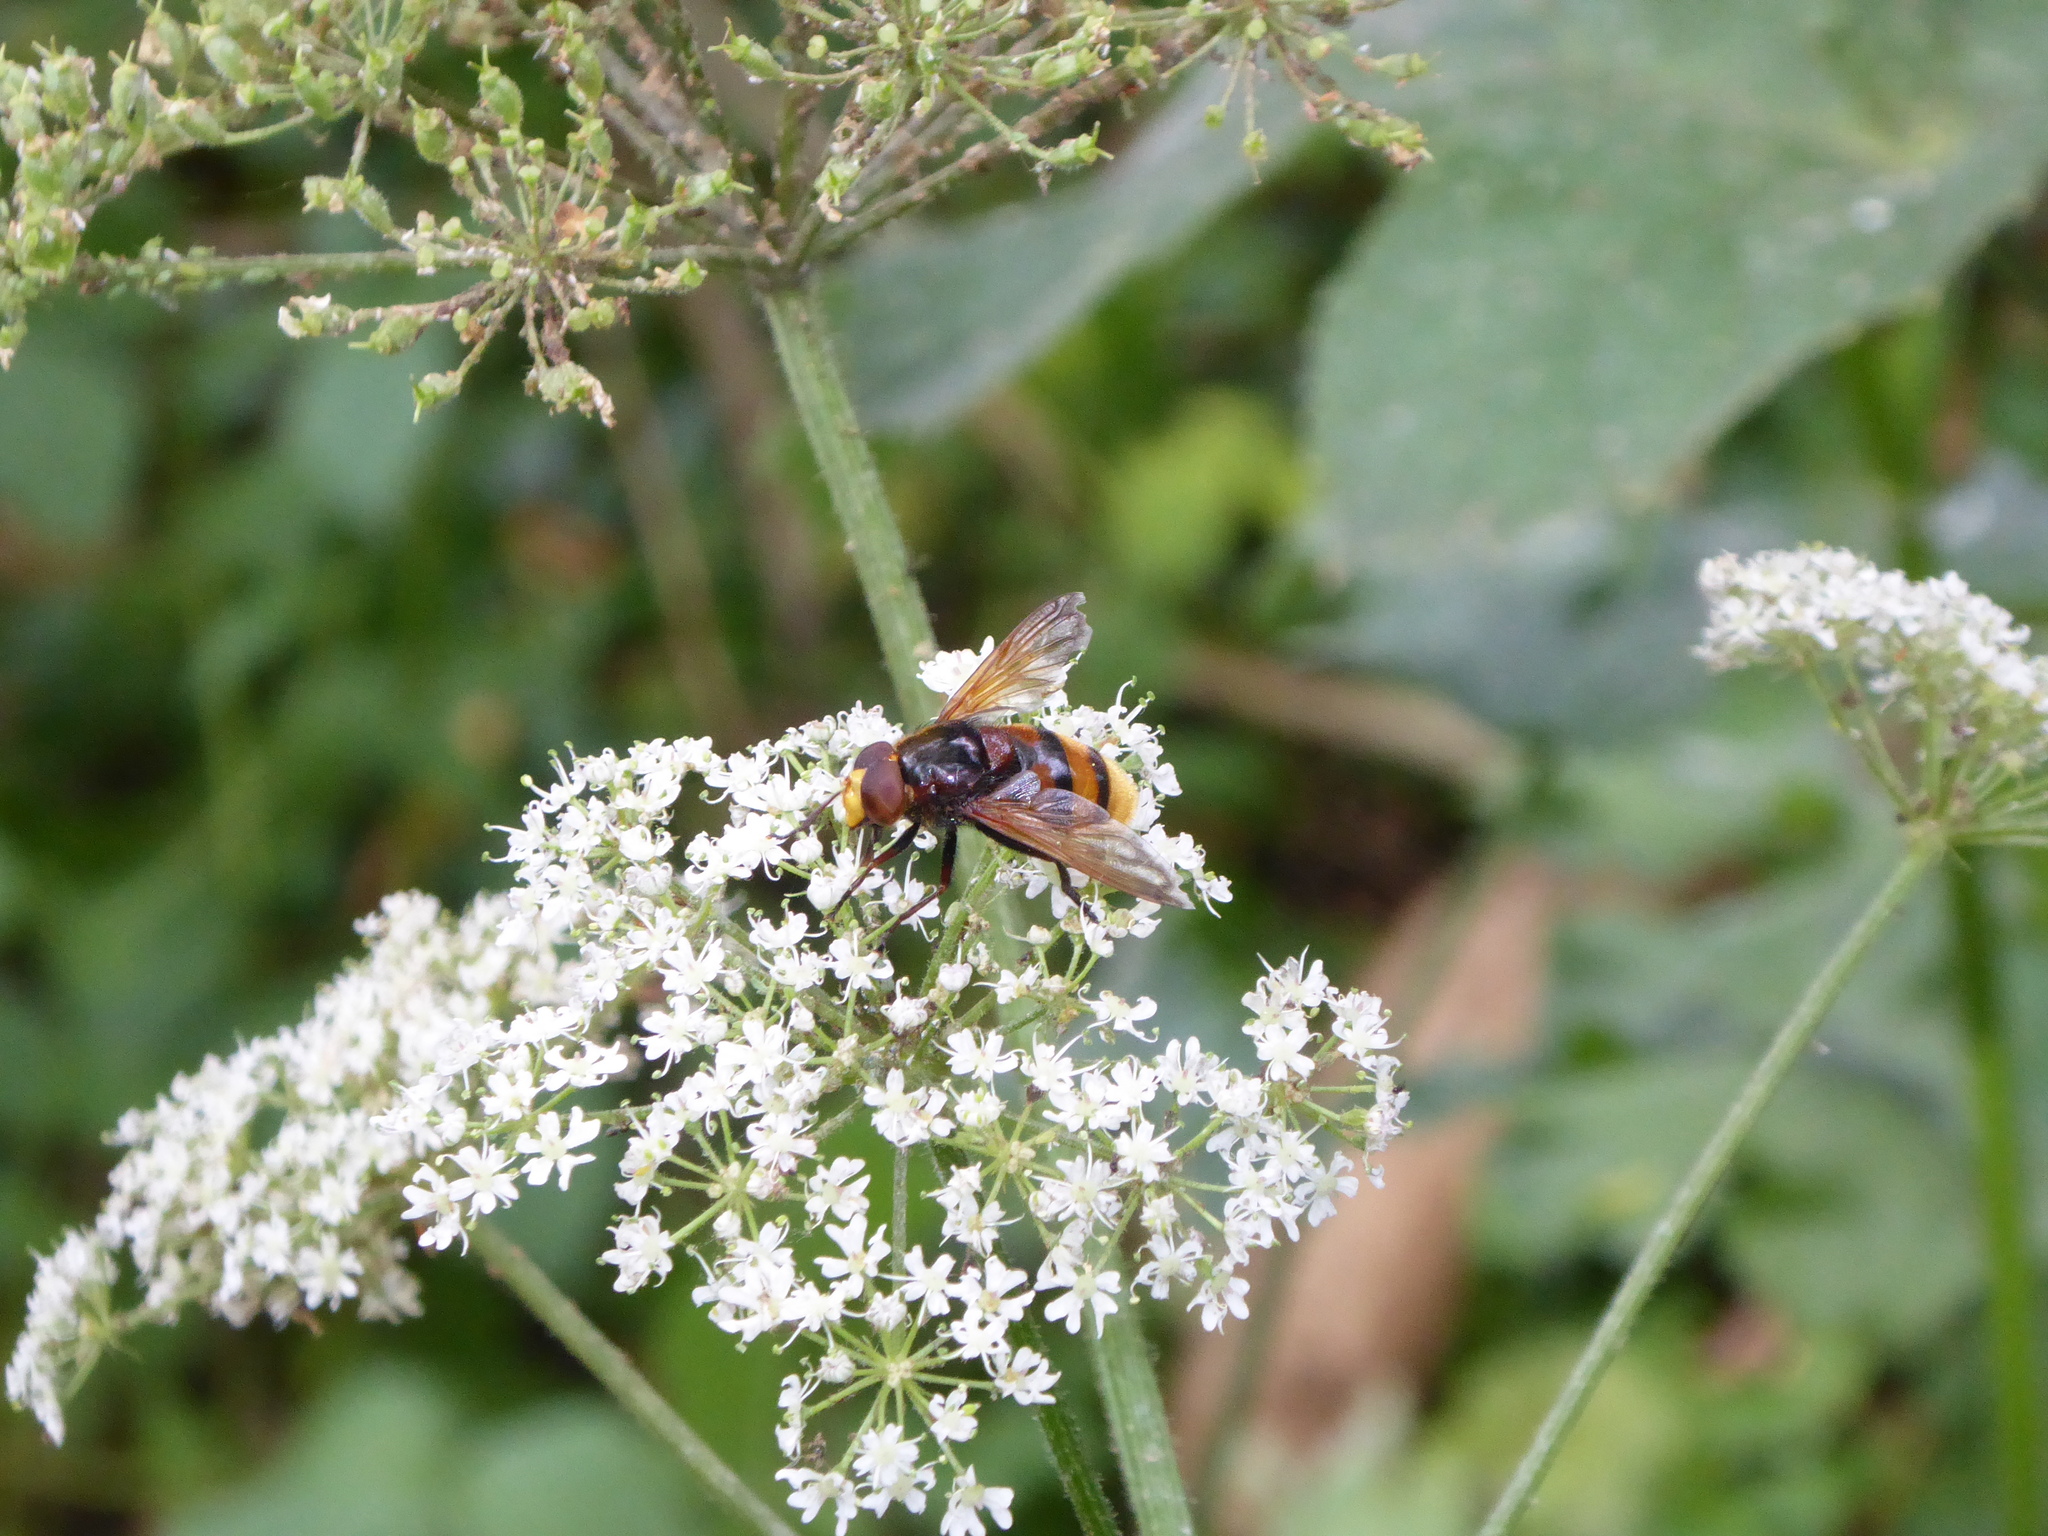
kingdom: Animalia
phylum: Arthropoda
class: Insecta
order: Diptera
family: Syrphidae
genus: Volucella
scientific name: Volucella zonaria
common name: Hornet hoverfly
